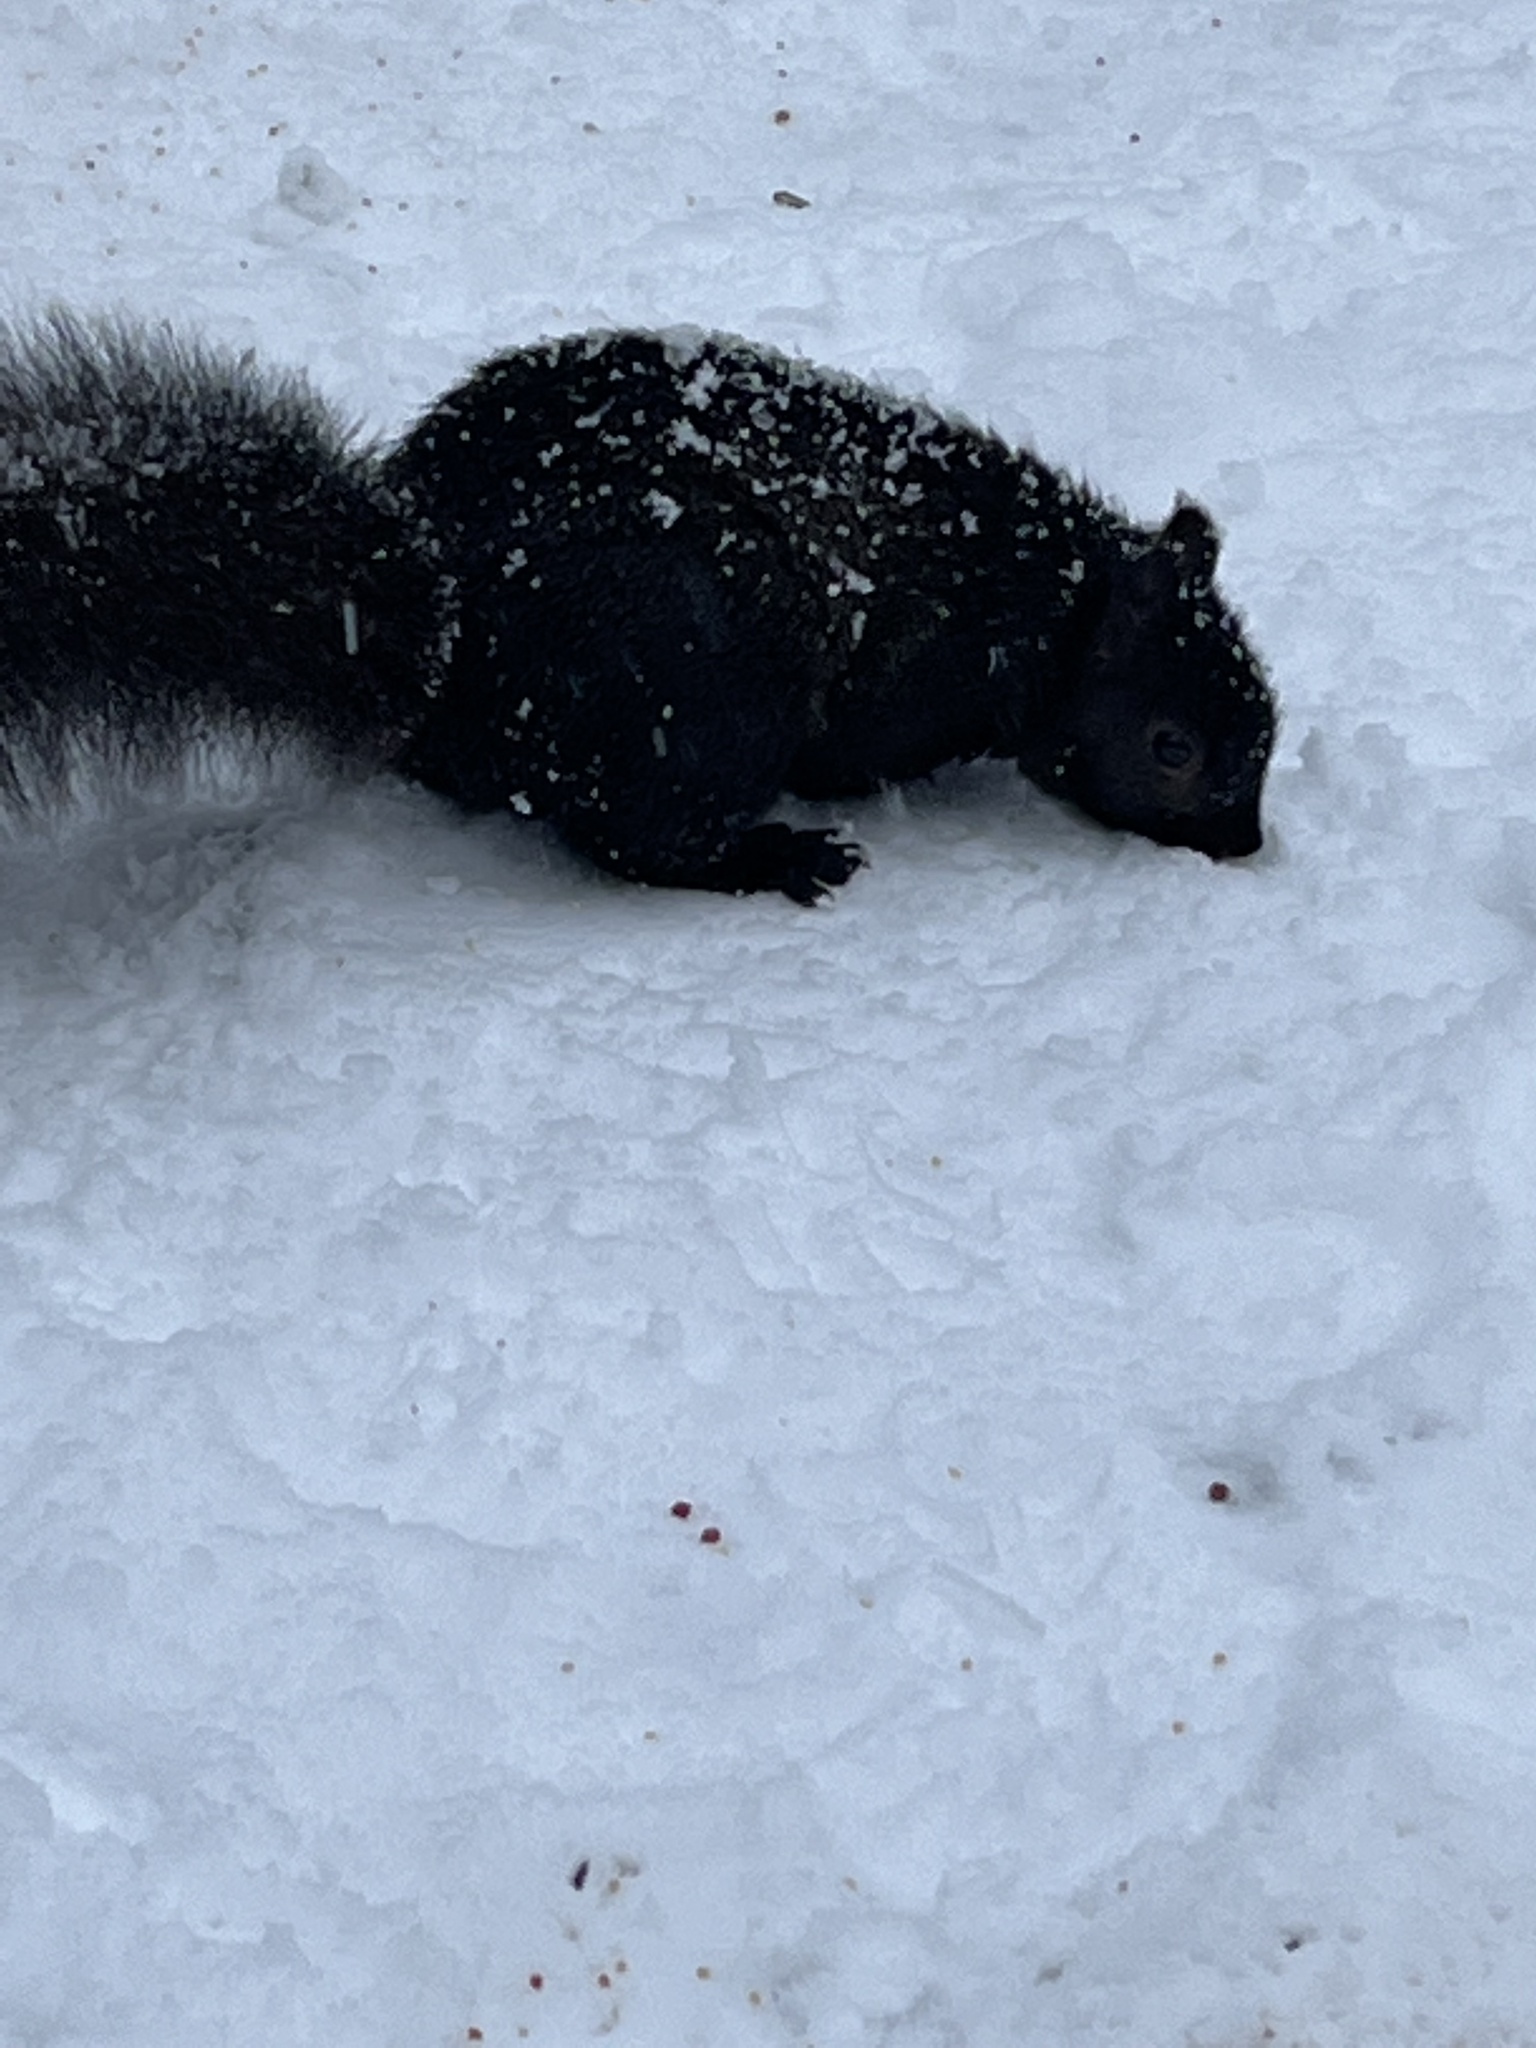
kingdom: Animalia
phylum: Chordata
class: Mammalia
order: Rodentia
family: Sciuridae
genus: Sciurus
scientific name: Sciurus carolinensis
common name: Eastern gray squirrel
